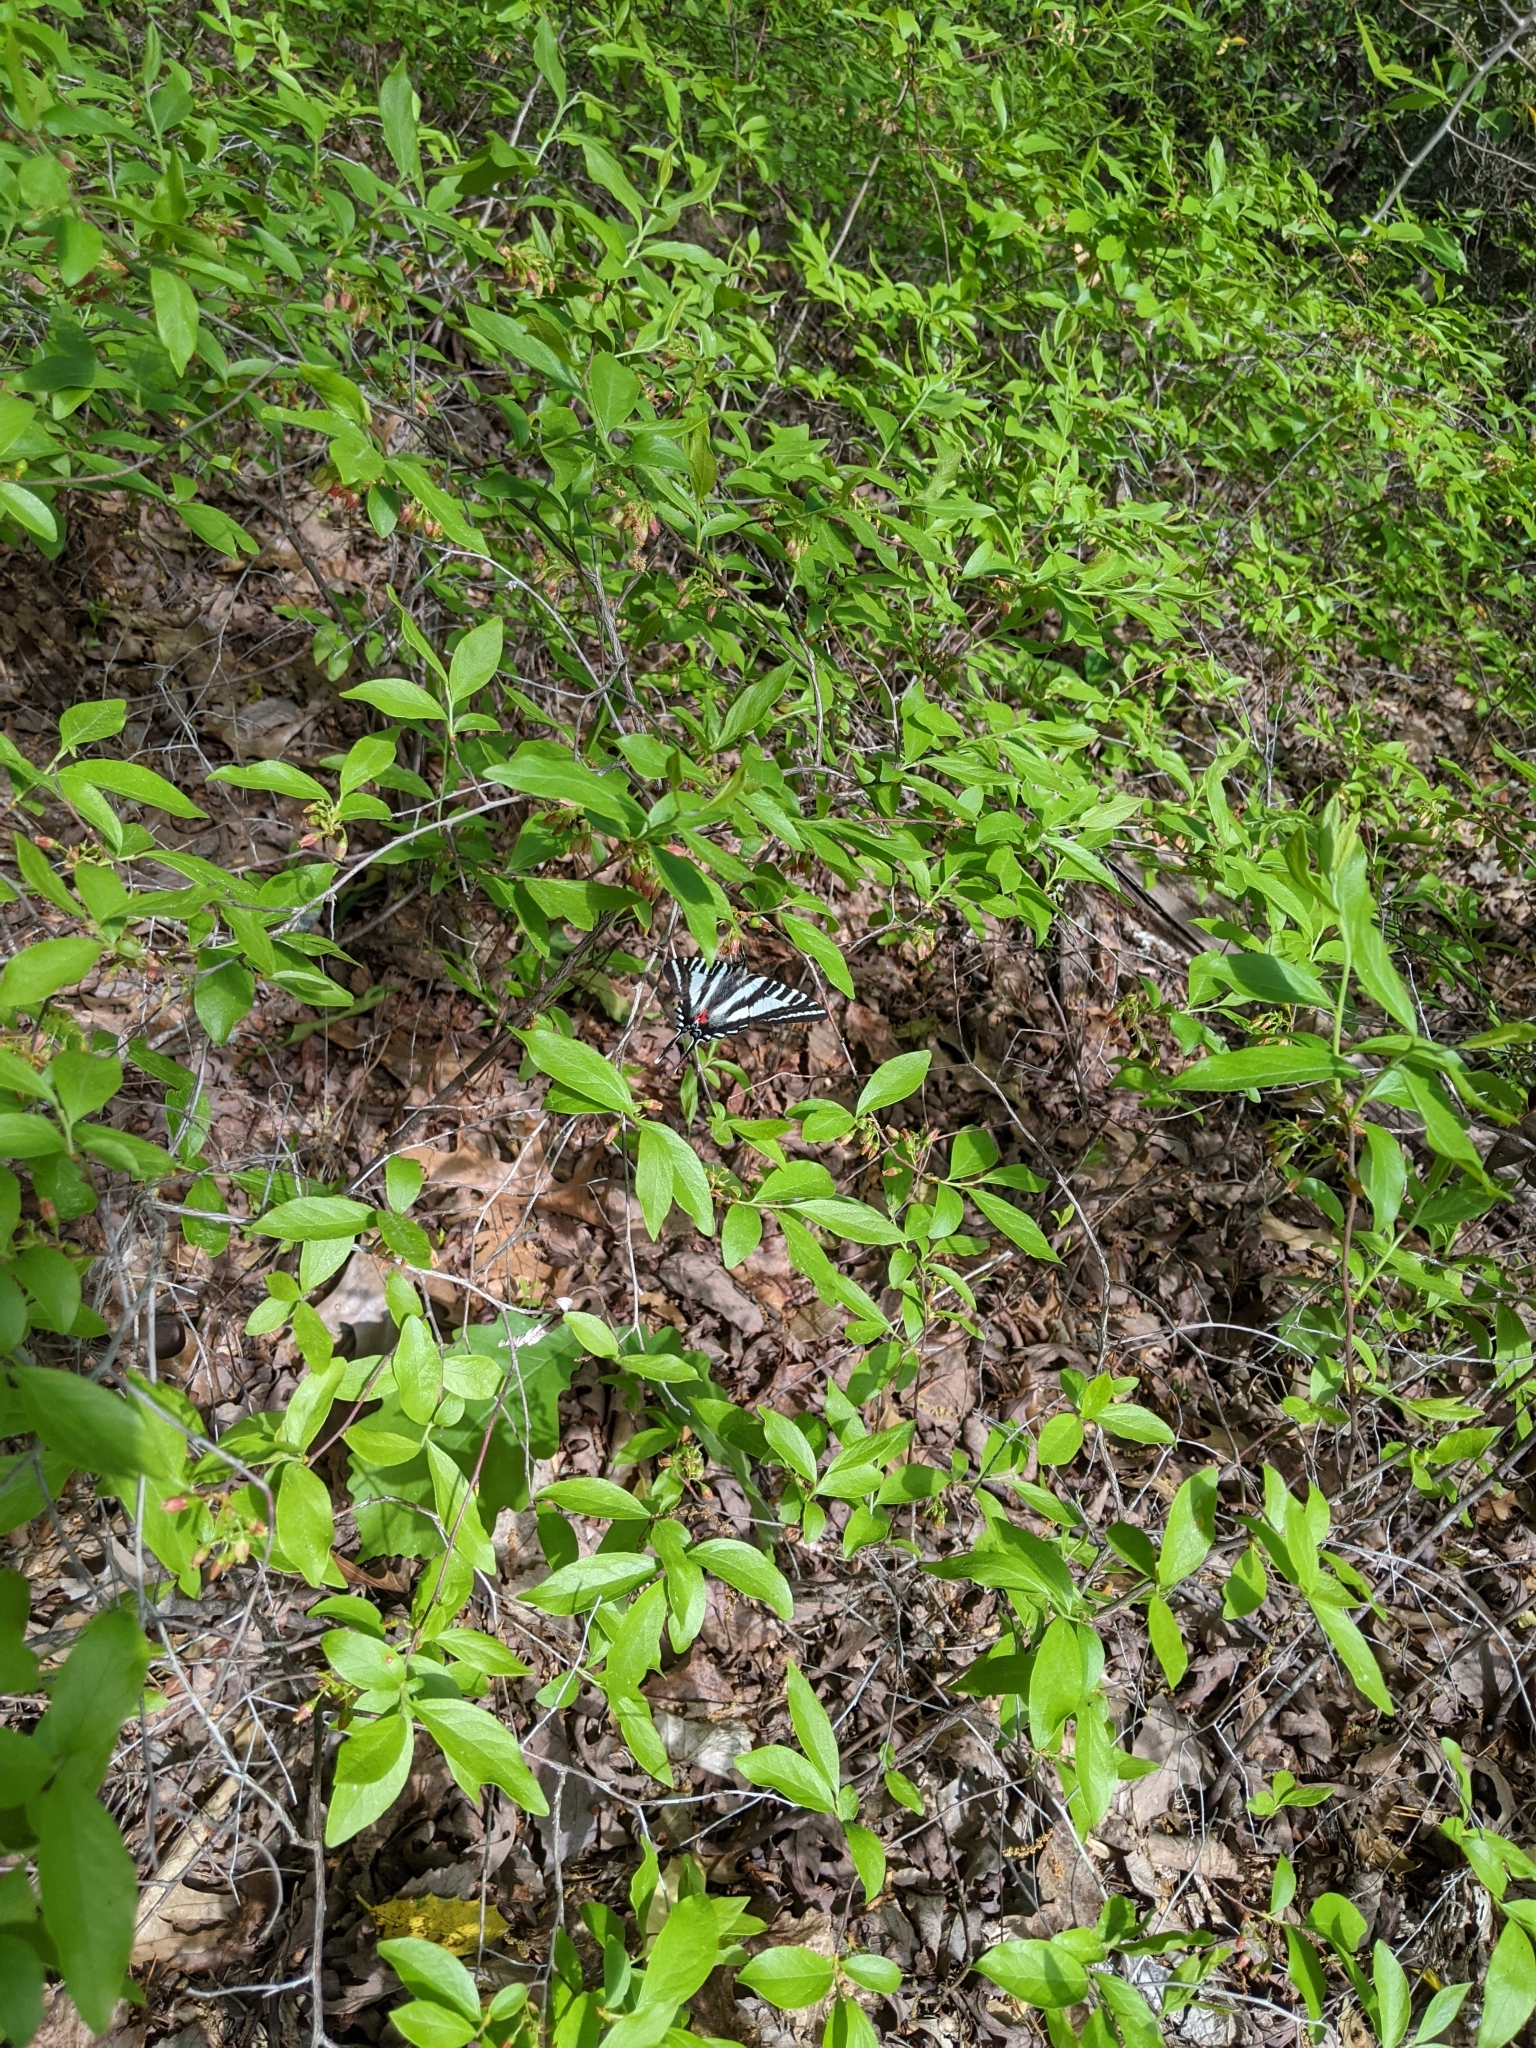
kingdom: Animalia
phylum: Arthropoda
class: Insecta
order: Lepidoptera
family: Papilionidae
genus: Protographium
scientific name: Protographium marcellus
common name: Zebra swallowtail
